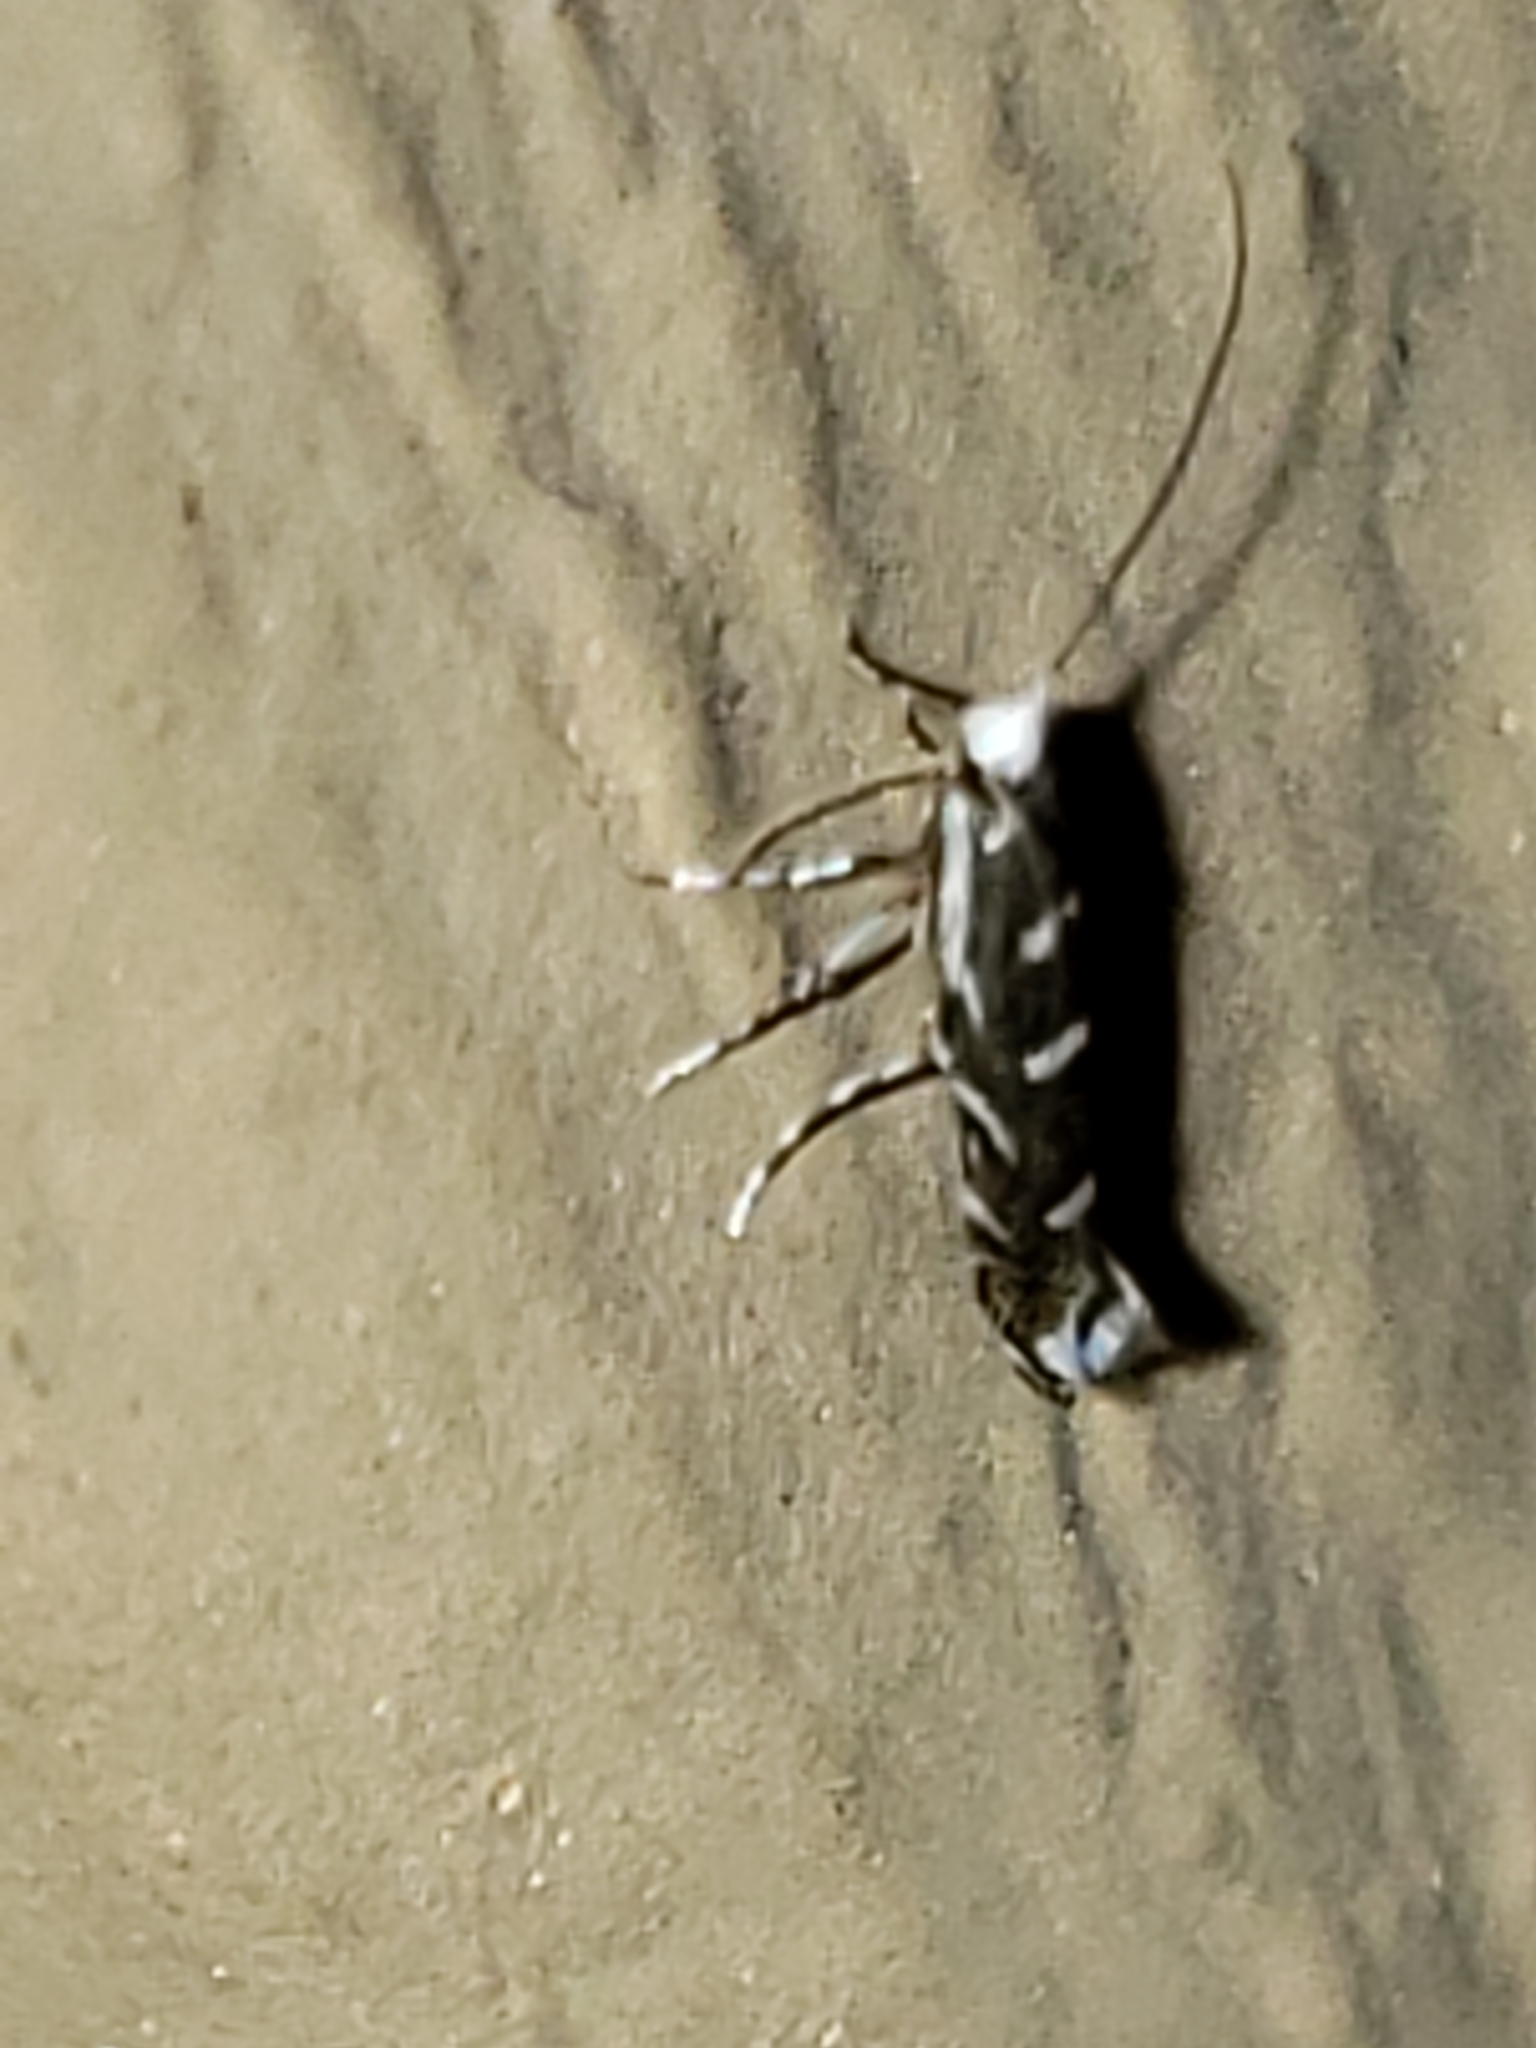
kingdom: Animalia
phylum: Arthropoda
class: Insecta
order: Lepidoptera
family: Gracillariidae
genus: Parectopa
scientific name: Parectopa robiniella
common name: Locust digitate leafminer
